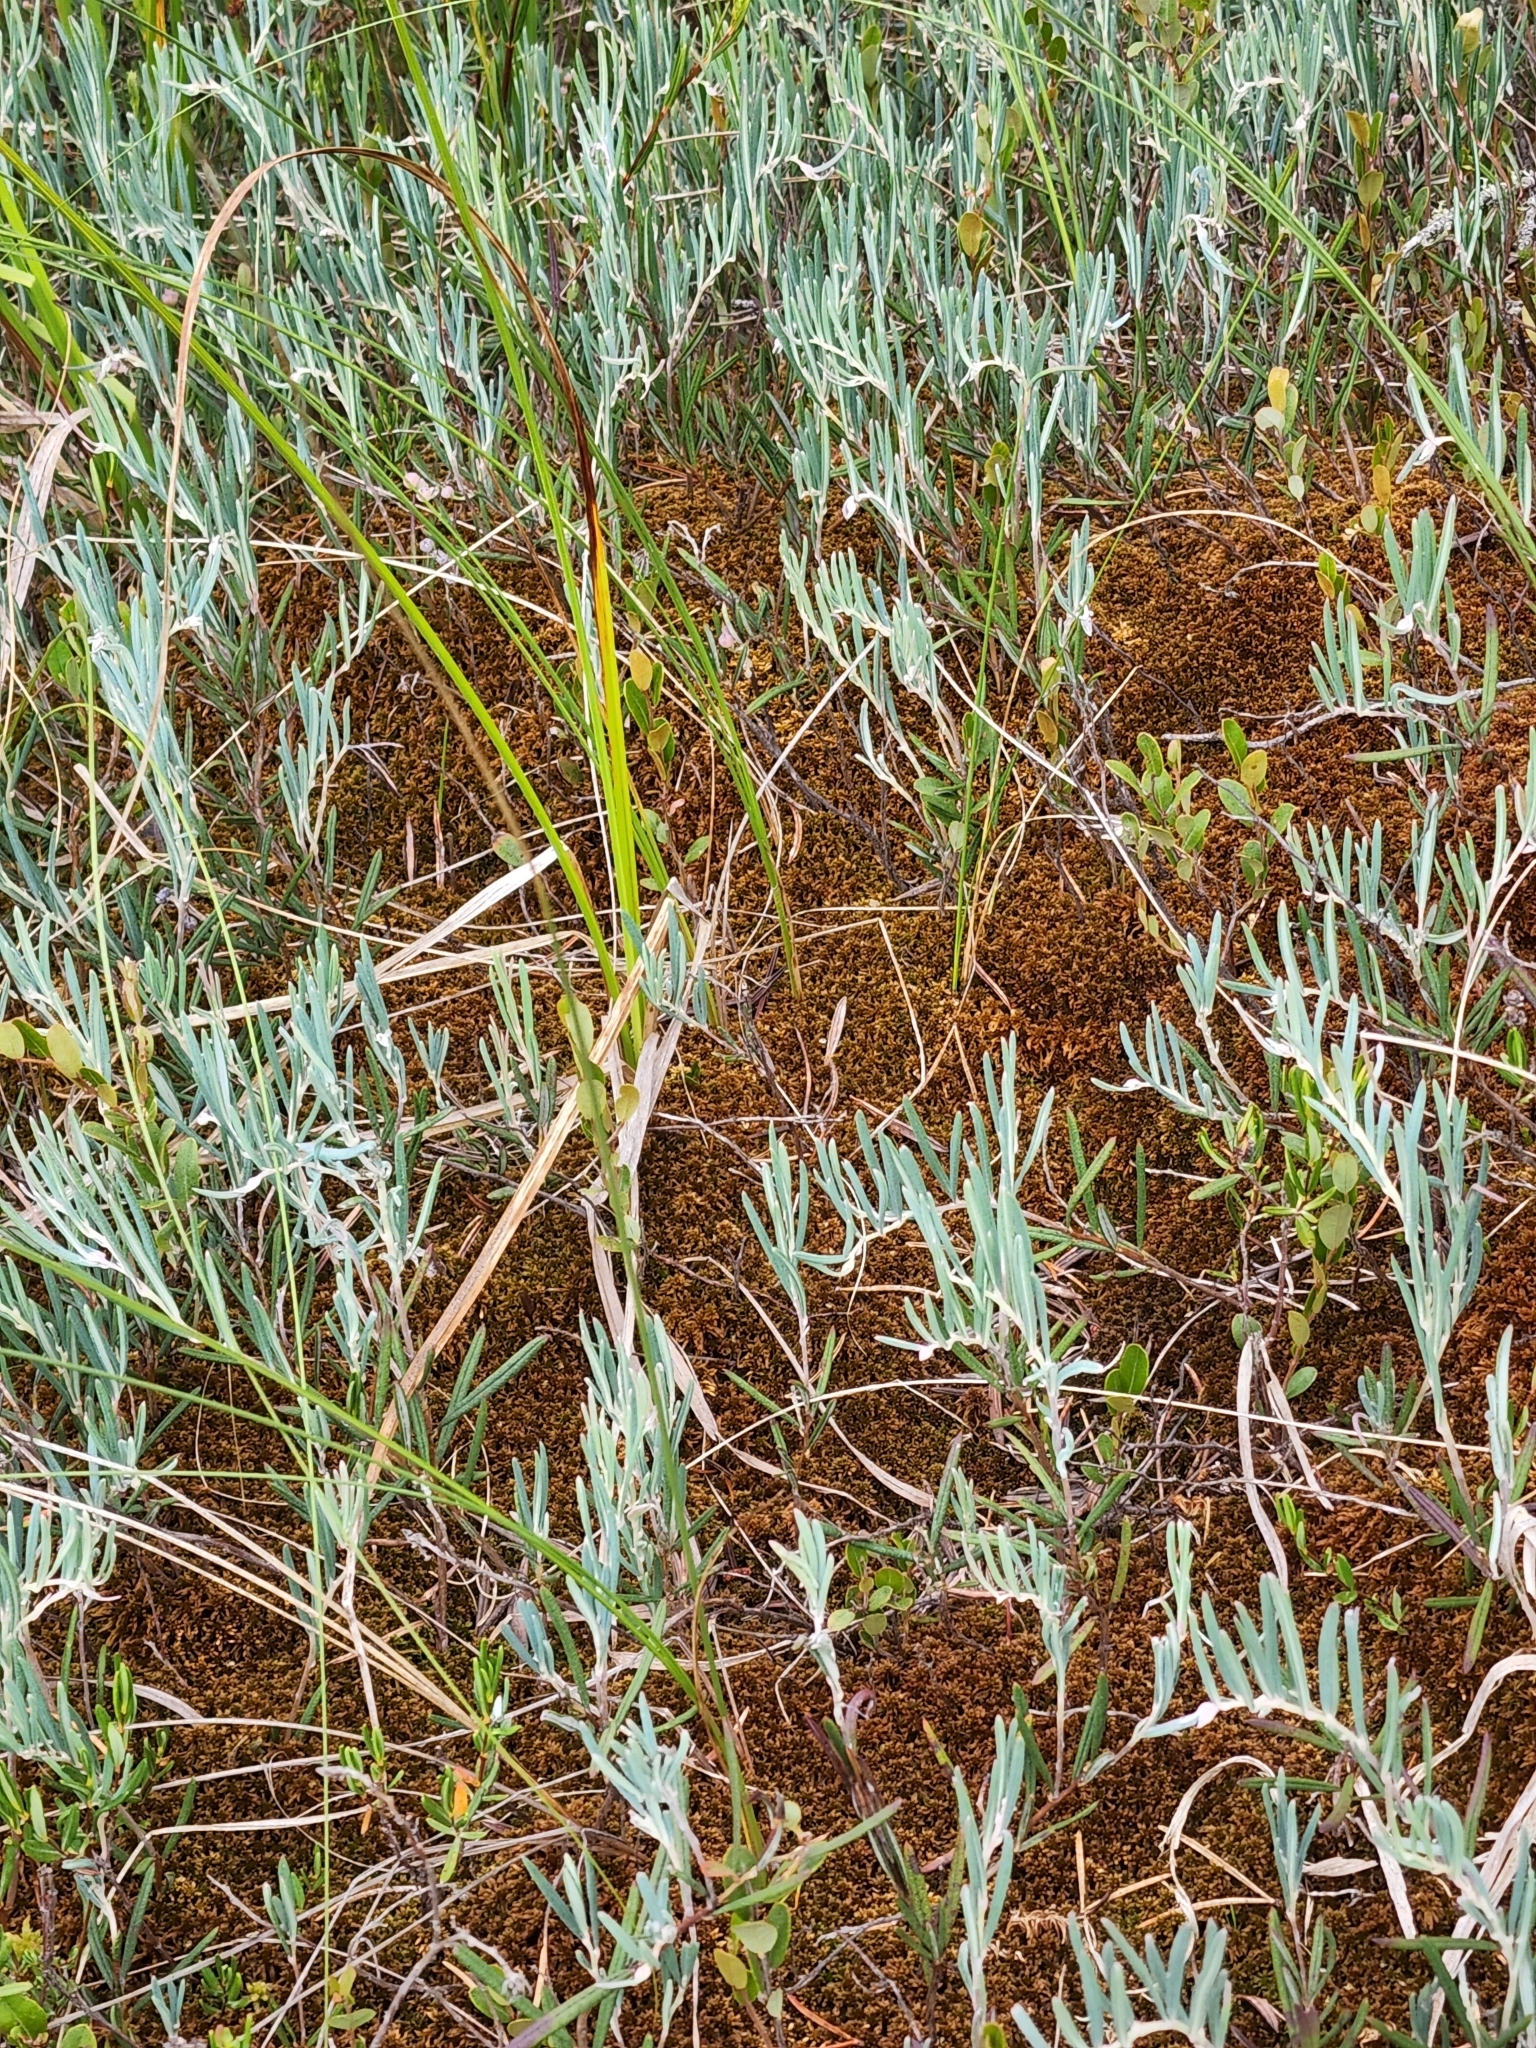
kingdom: Plantae
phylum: Tracheophyta
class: Magnoliopsida
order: Ericales
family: Ericaceae
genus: Andromeda
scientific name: Andromeda polifolia
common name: Bog-rosemary
